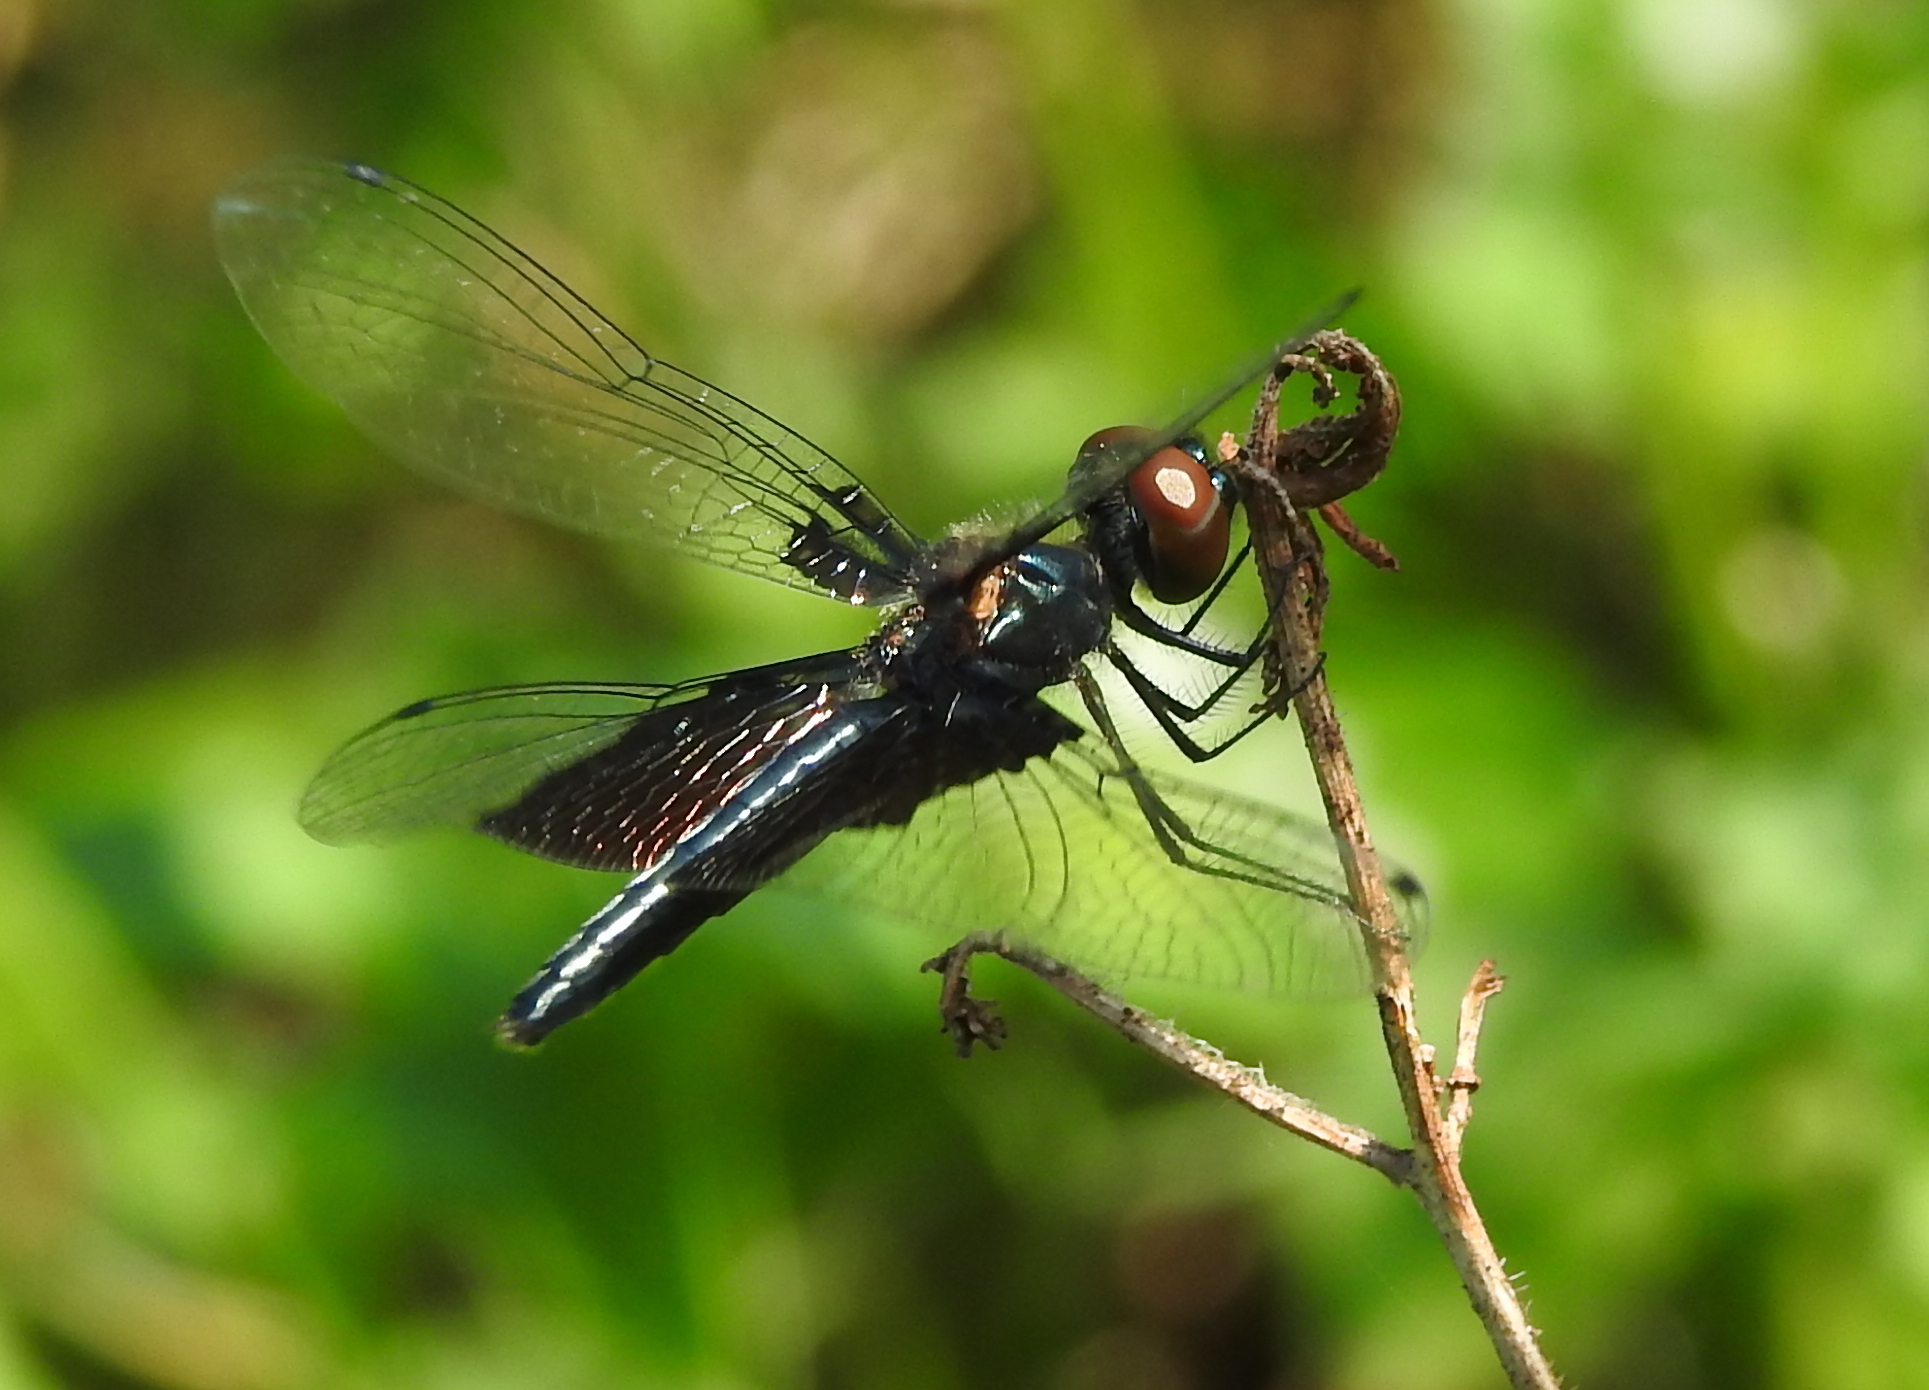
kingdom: Animalia
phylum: Arthropoda
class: Insecta
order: Odonata
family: Libellulidae
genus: Rhyothemis
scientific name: Rhyothemis triangularis
